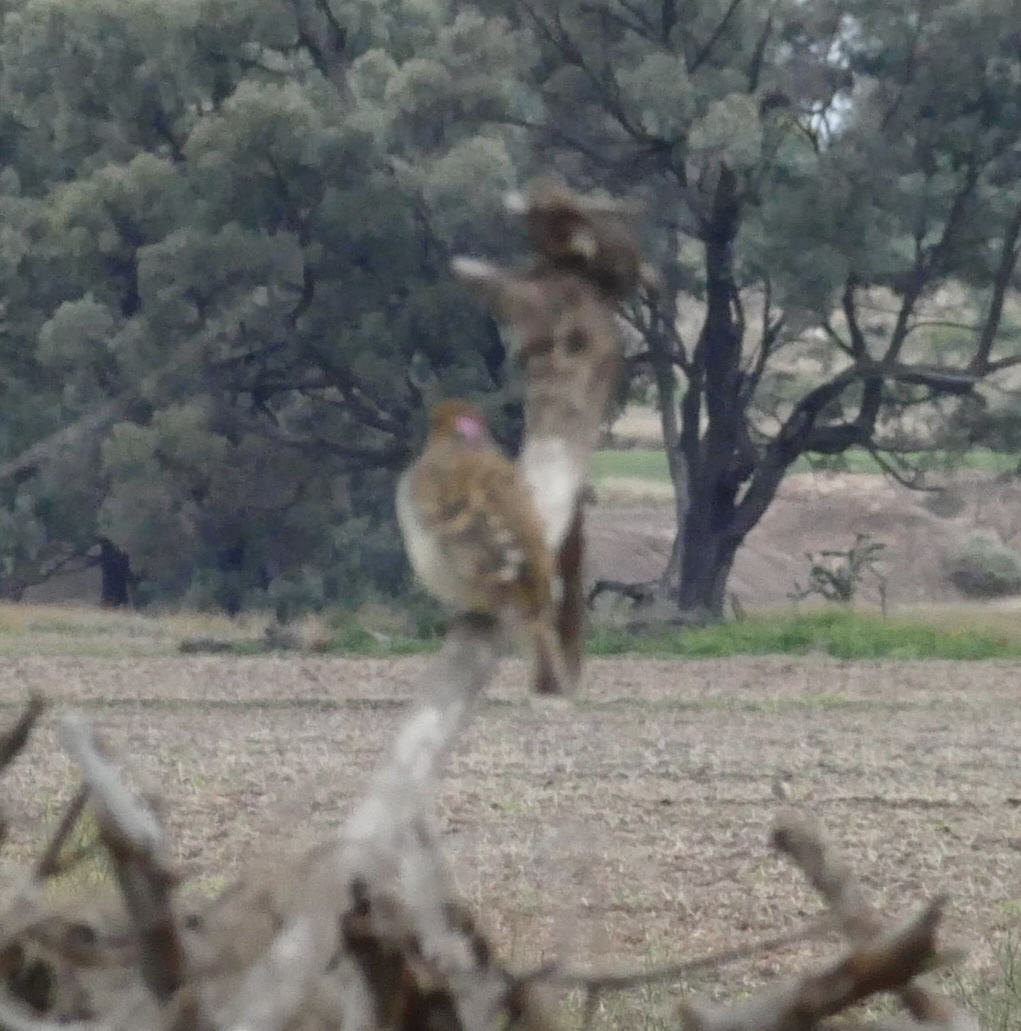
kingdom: Animalia
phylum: Chordata
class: Aves
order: Passeriformes
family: Ptilonorhynchidae
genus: Chlamydera
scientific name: Chlamydera maculata
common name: Spotted bowerbird
